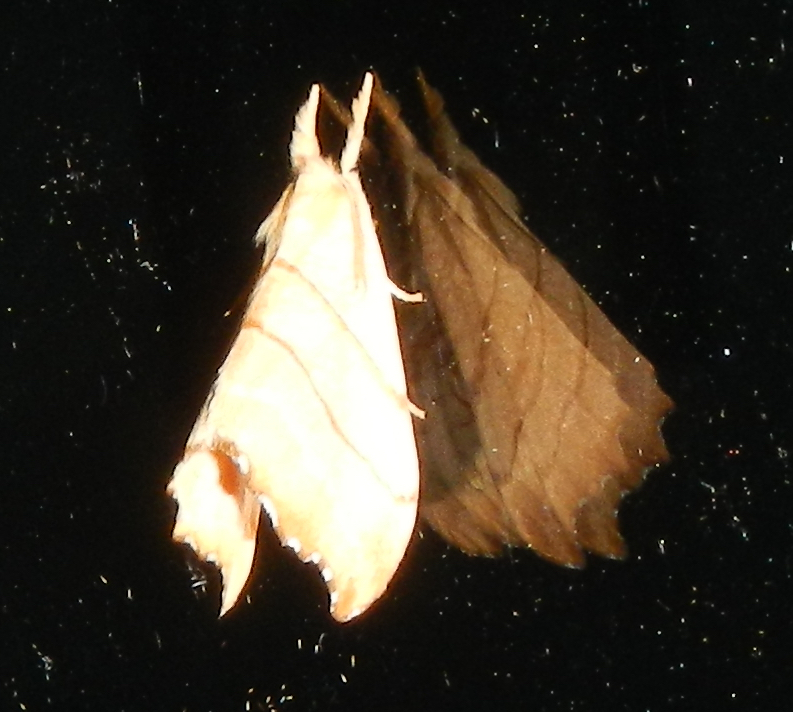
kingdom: Animalia
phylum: Arthropoda
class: Insecta
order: Lepidoptera
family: Drepanidae
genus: Falcaria
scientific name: Falcaria bilineata
